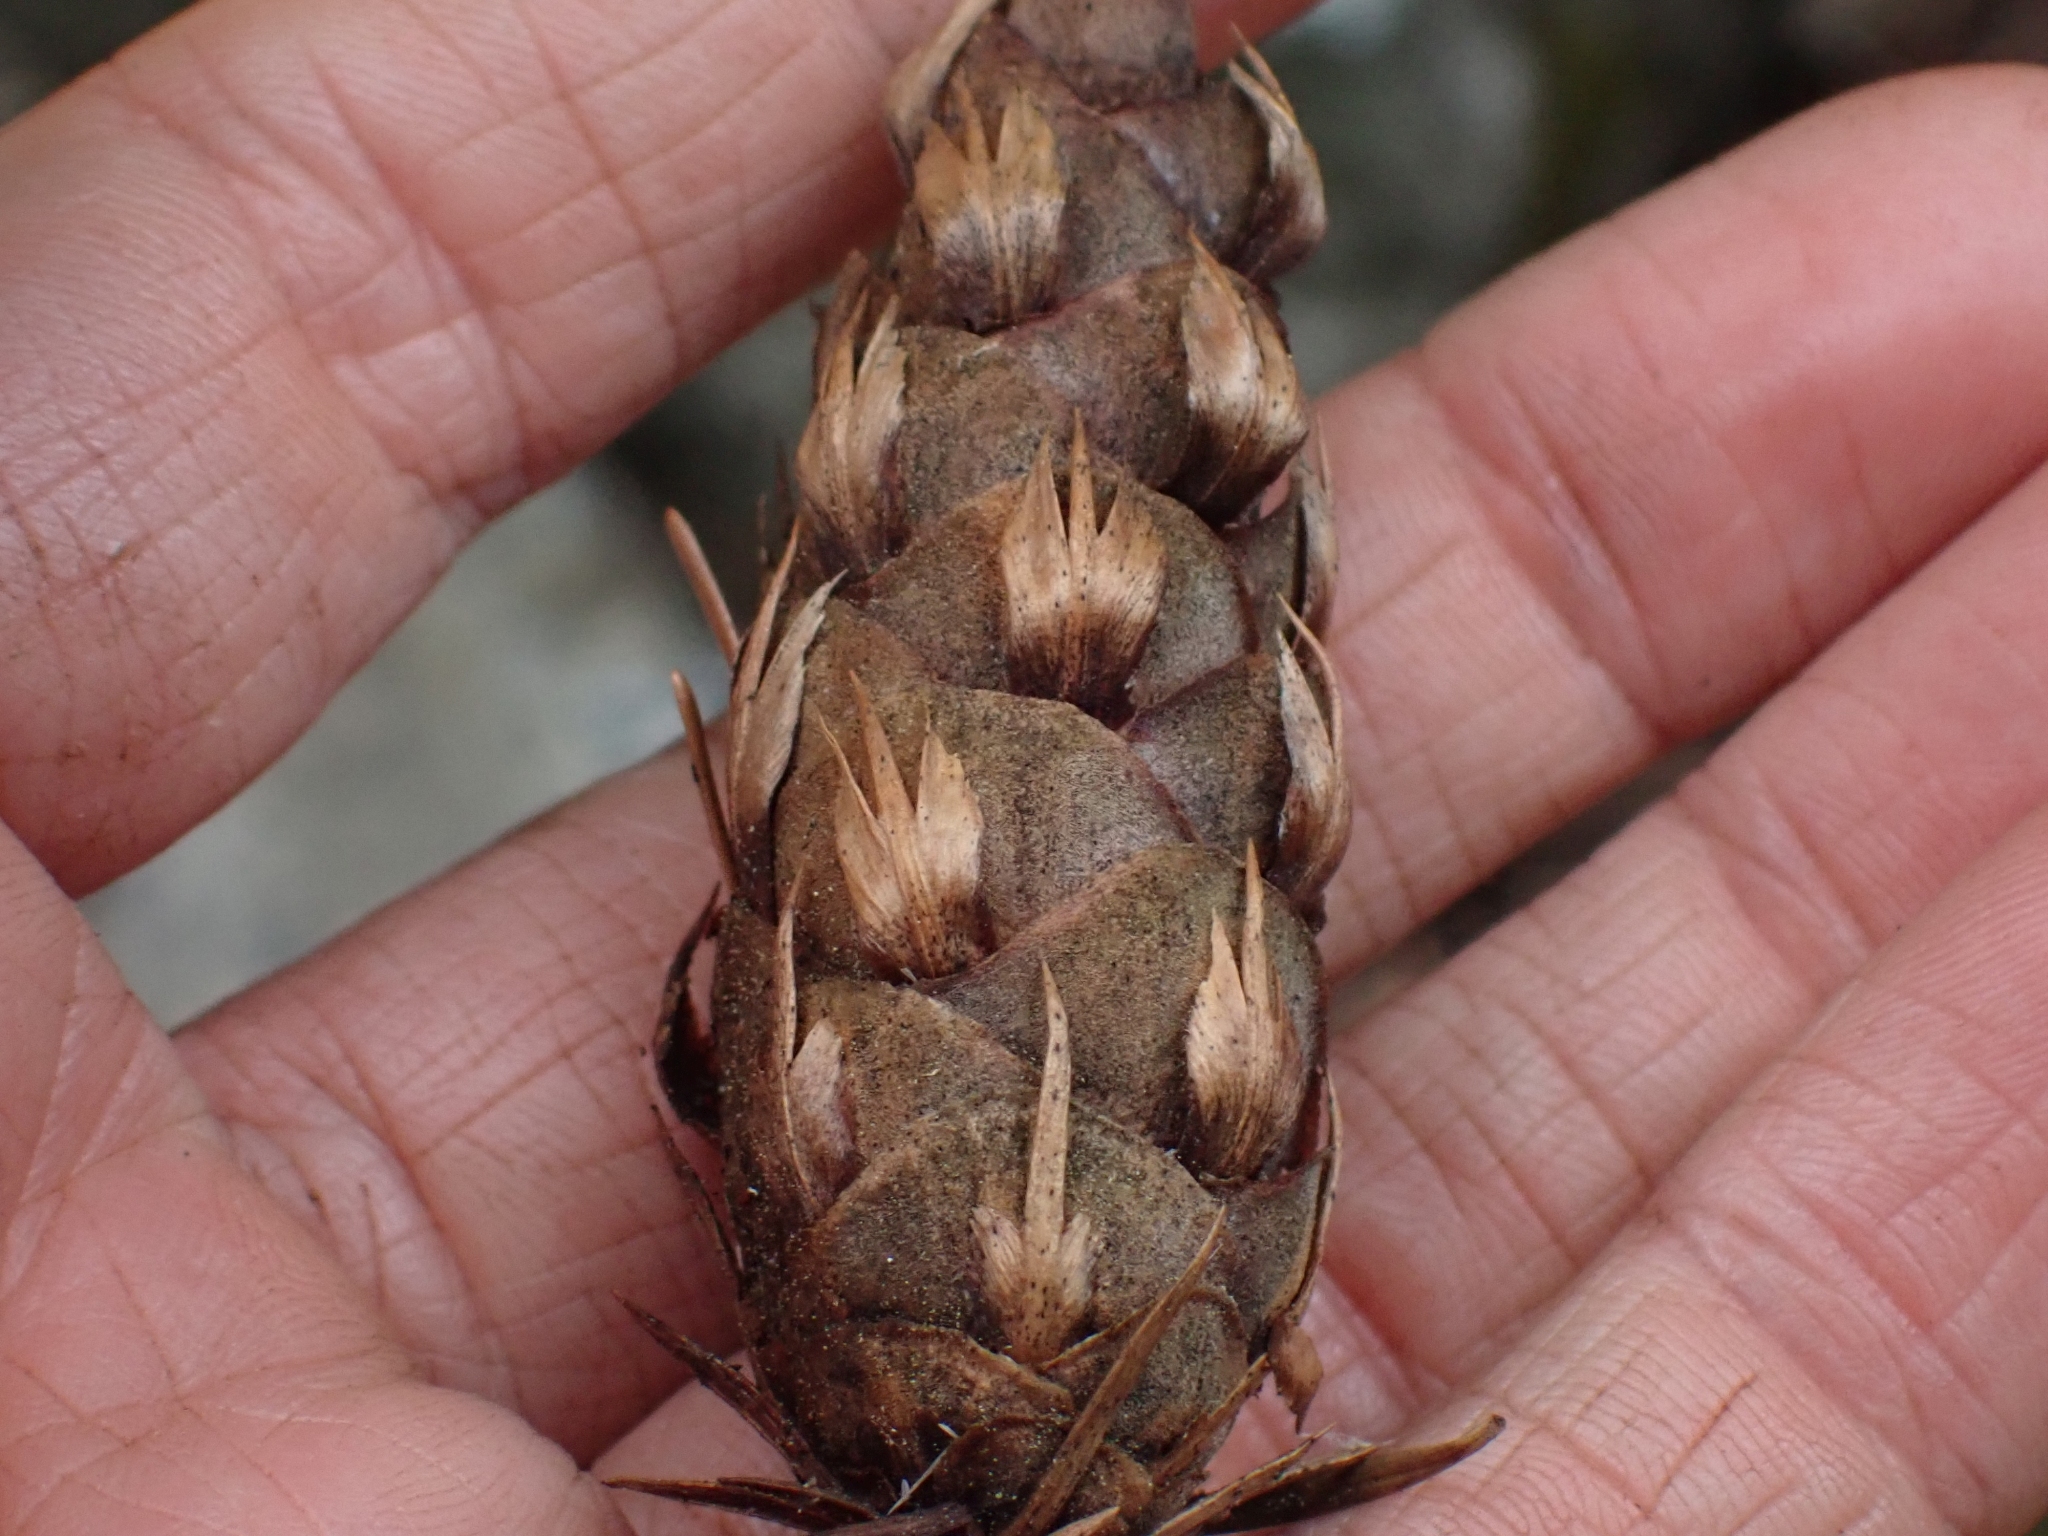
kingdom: Plantae
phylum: Tracheophyta
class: Pinopsida
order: Pinales
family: Pinaceae
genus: Pseudotsuga
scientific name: Pseudotsuga menziesii
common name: Douglas fir
